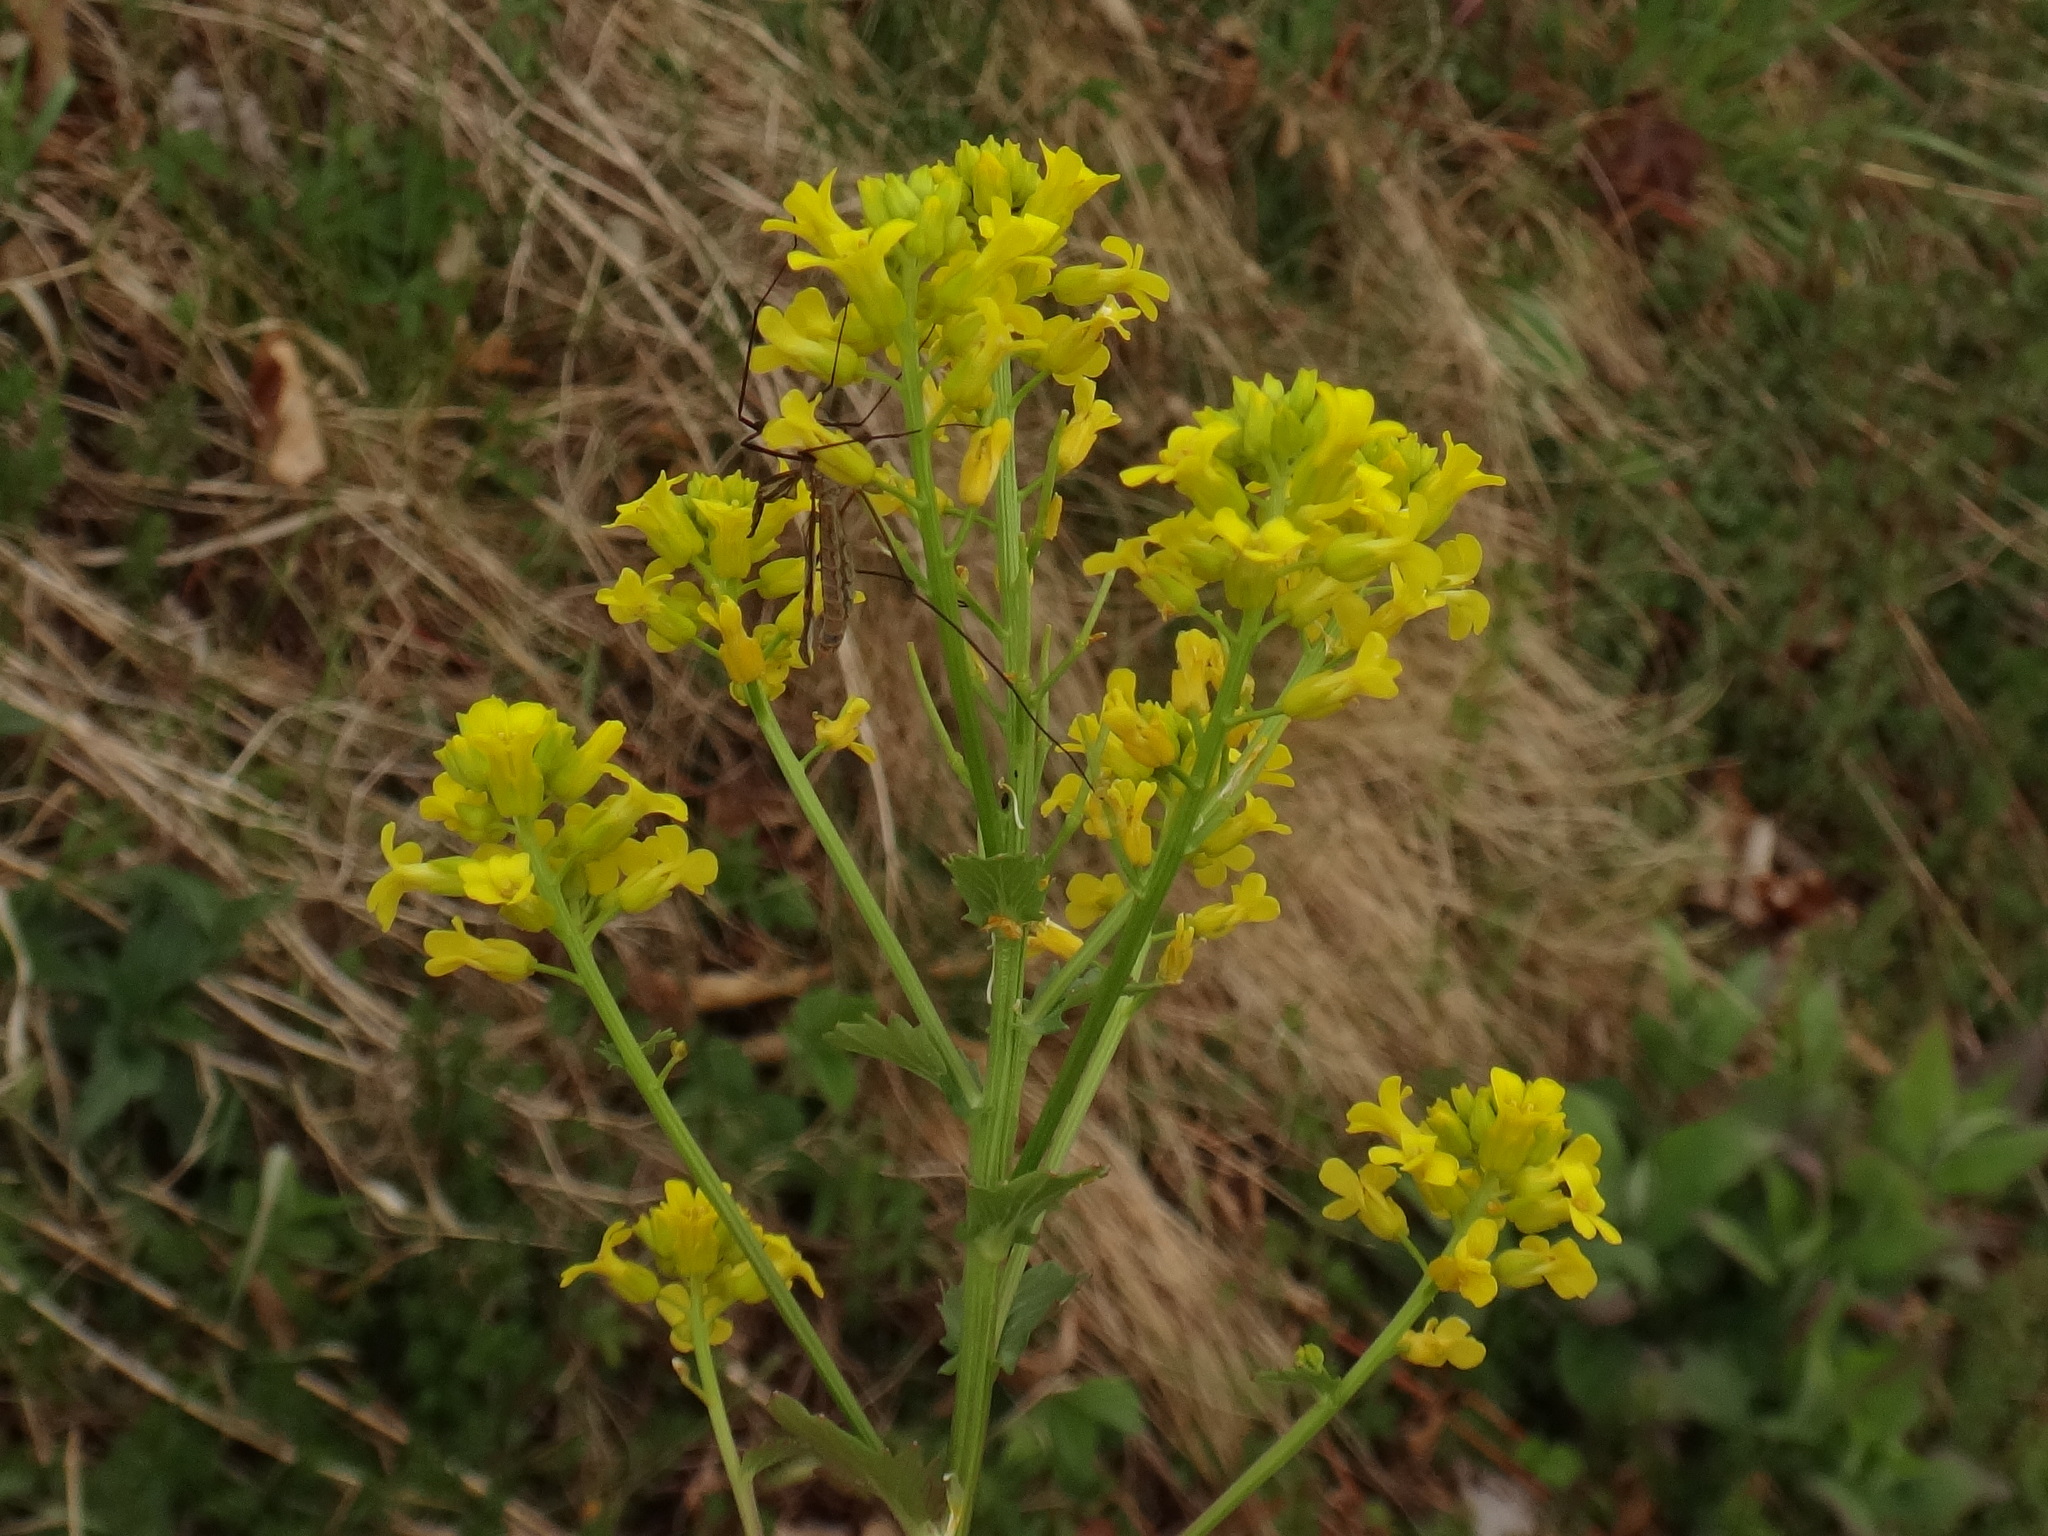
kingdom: Plantae
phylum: Tracheophyta
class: Magnoliopsida
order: Brassicales
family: Brassicaceae
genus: Barbarea
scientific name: Barbarea vulgaris
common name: Cressy-greens
